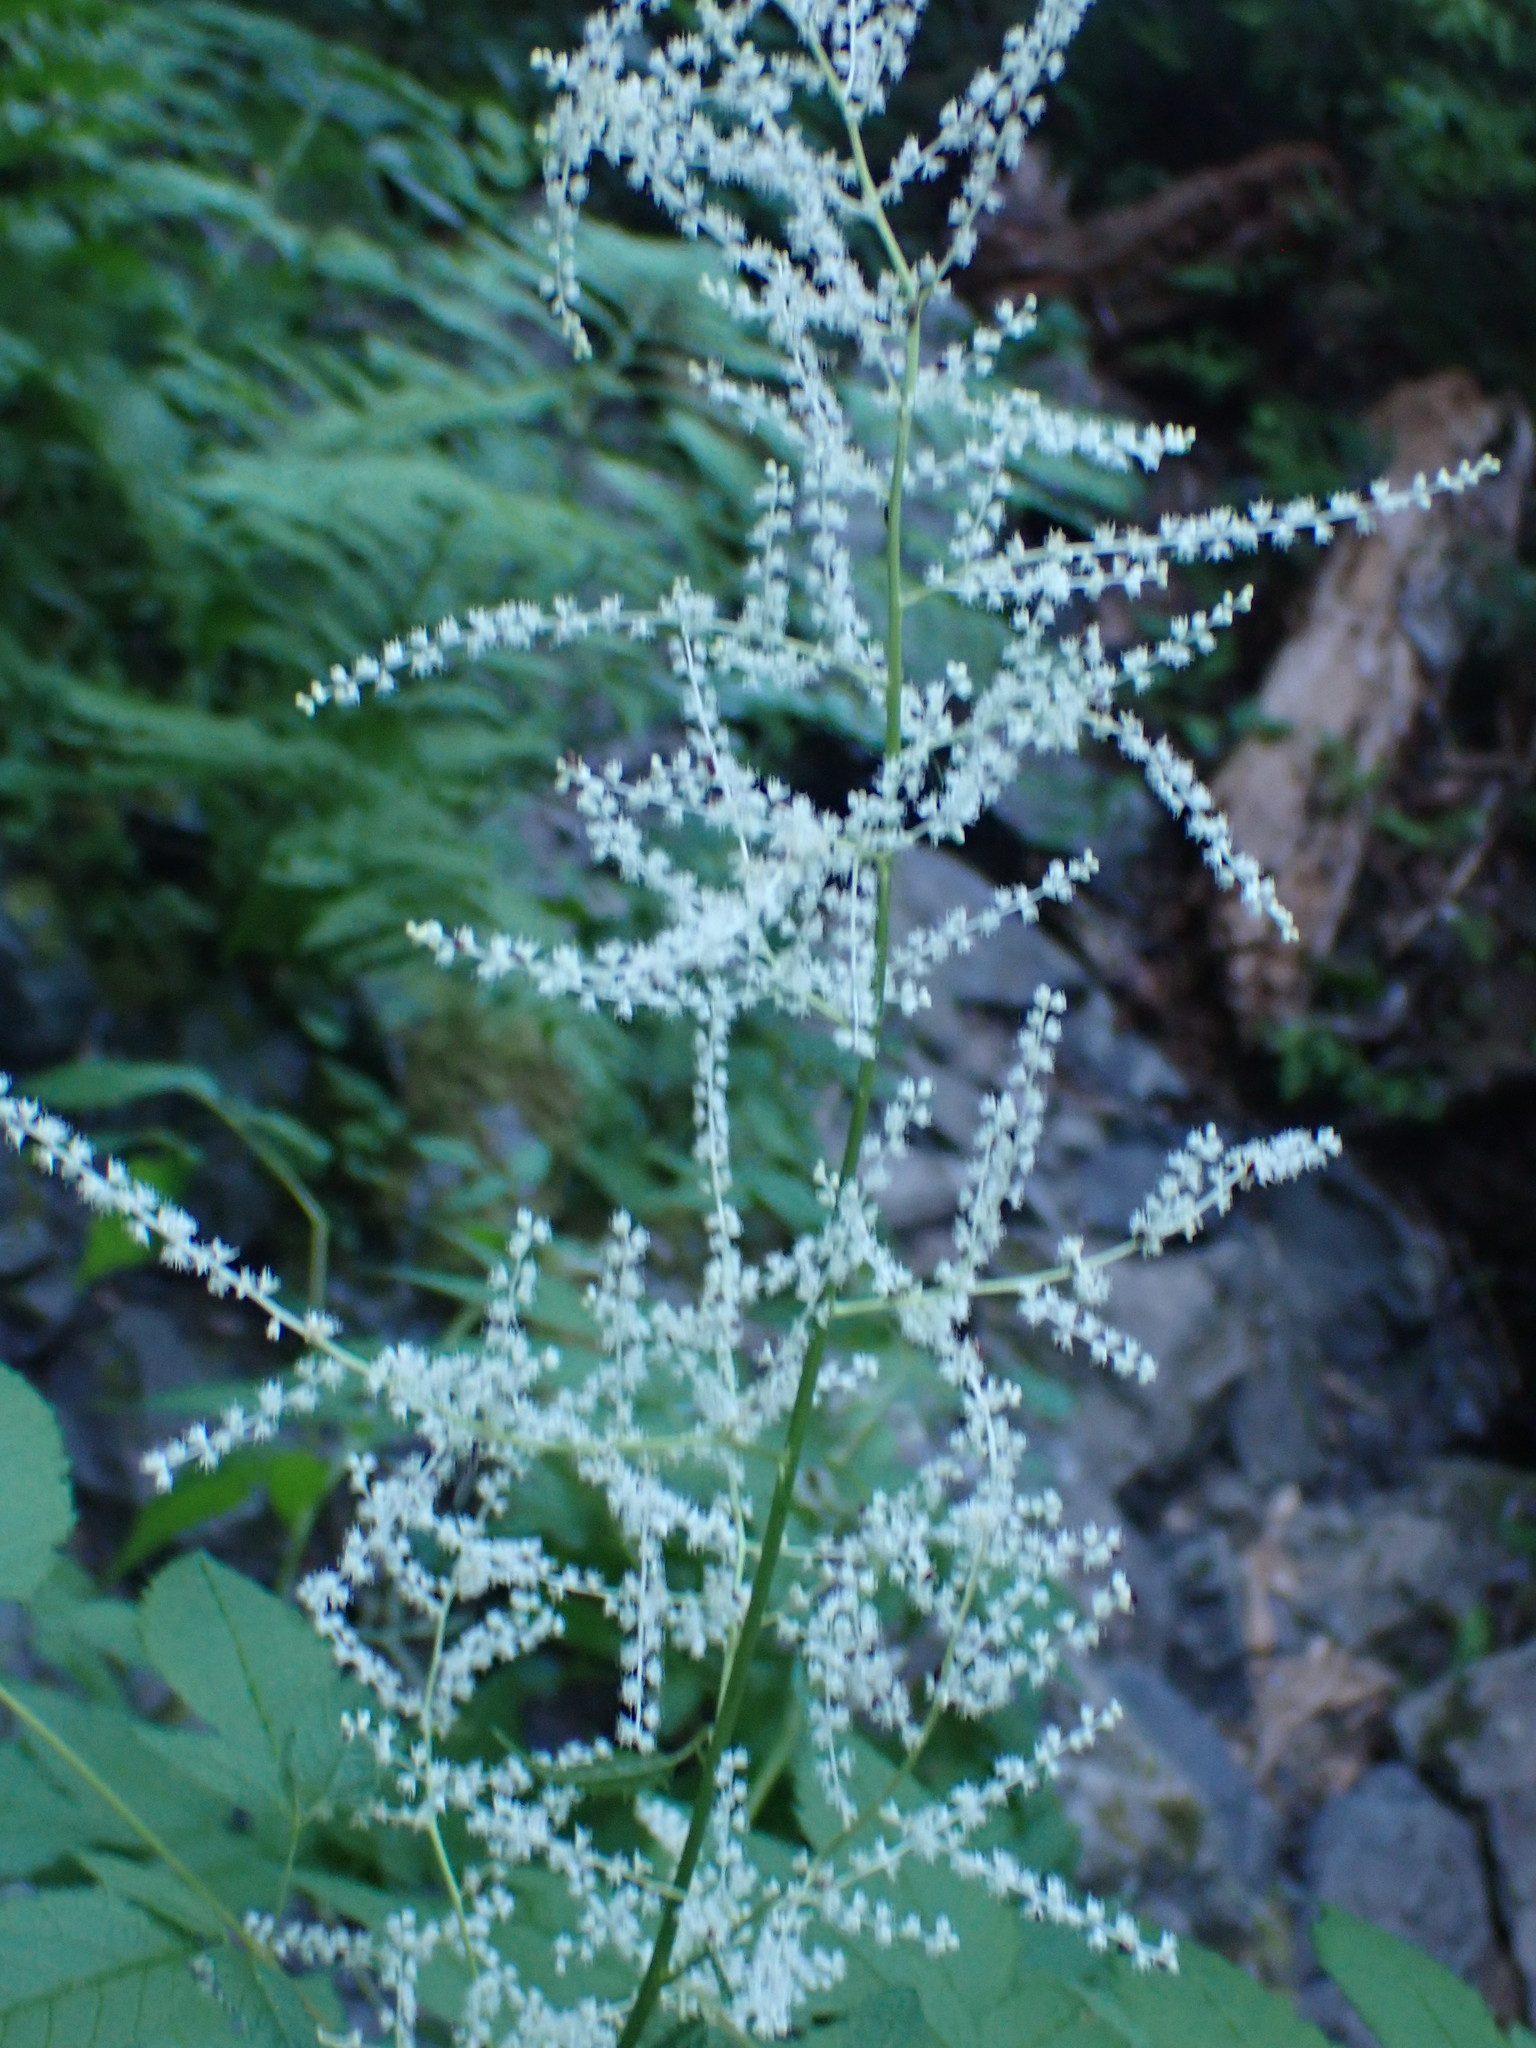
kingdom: Plantae
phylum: Tracheophyta
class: Magnoliopsida
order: Rosales
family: Rosaceae
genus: Aruncus
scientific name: Aruncus dioicus
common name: Buck's-beard
